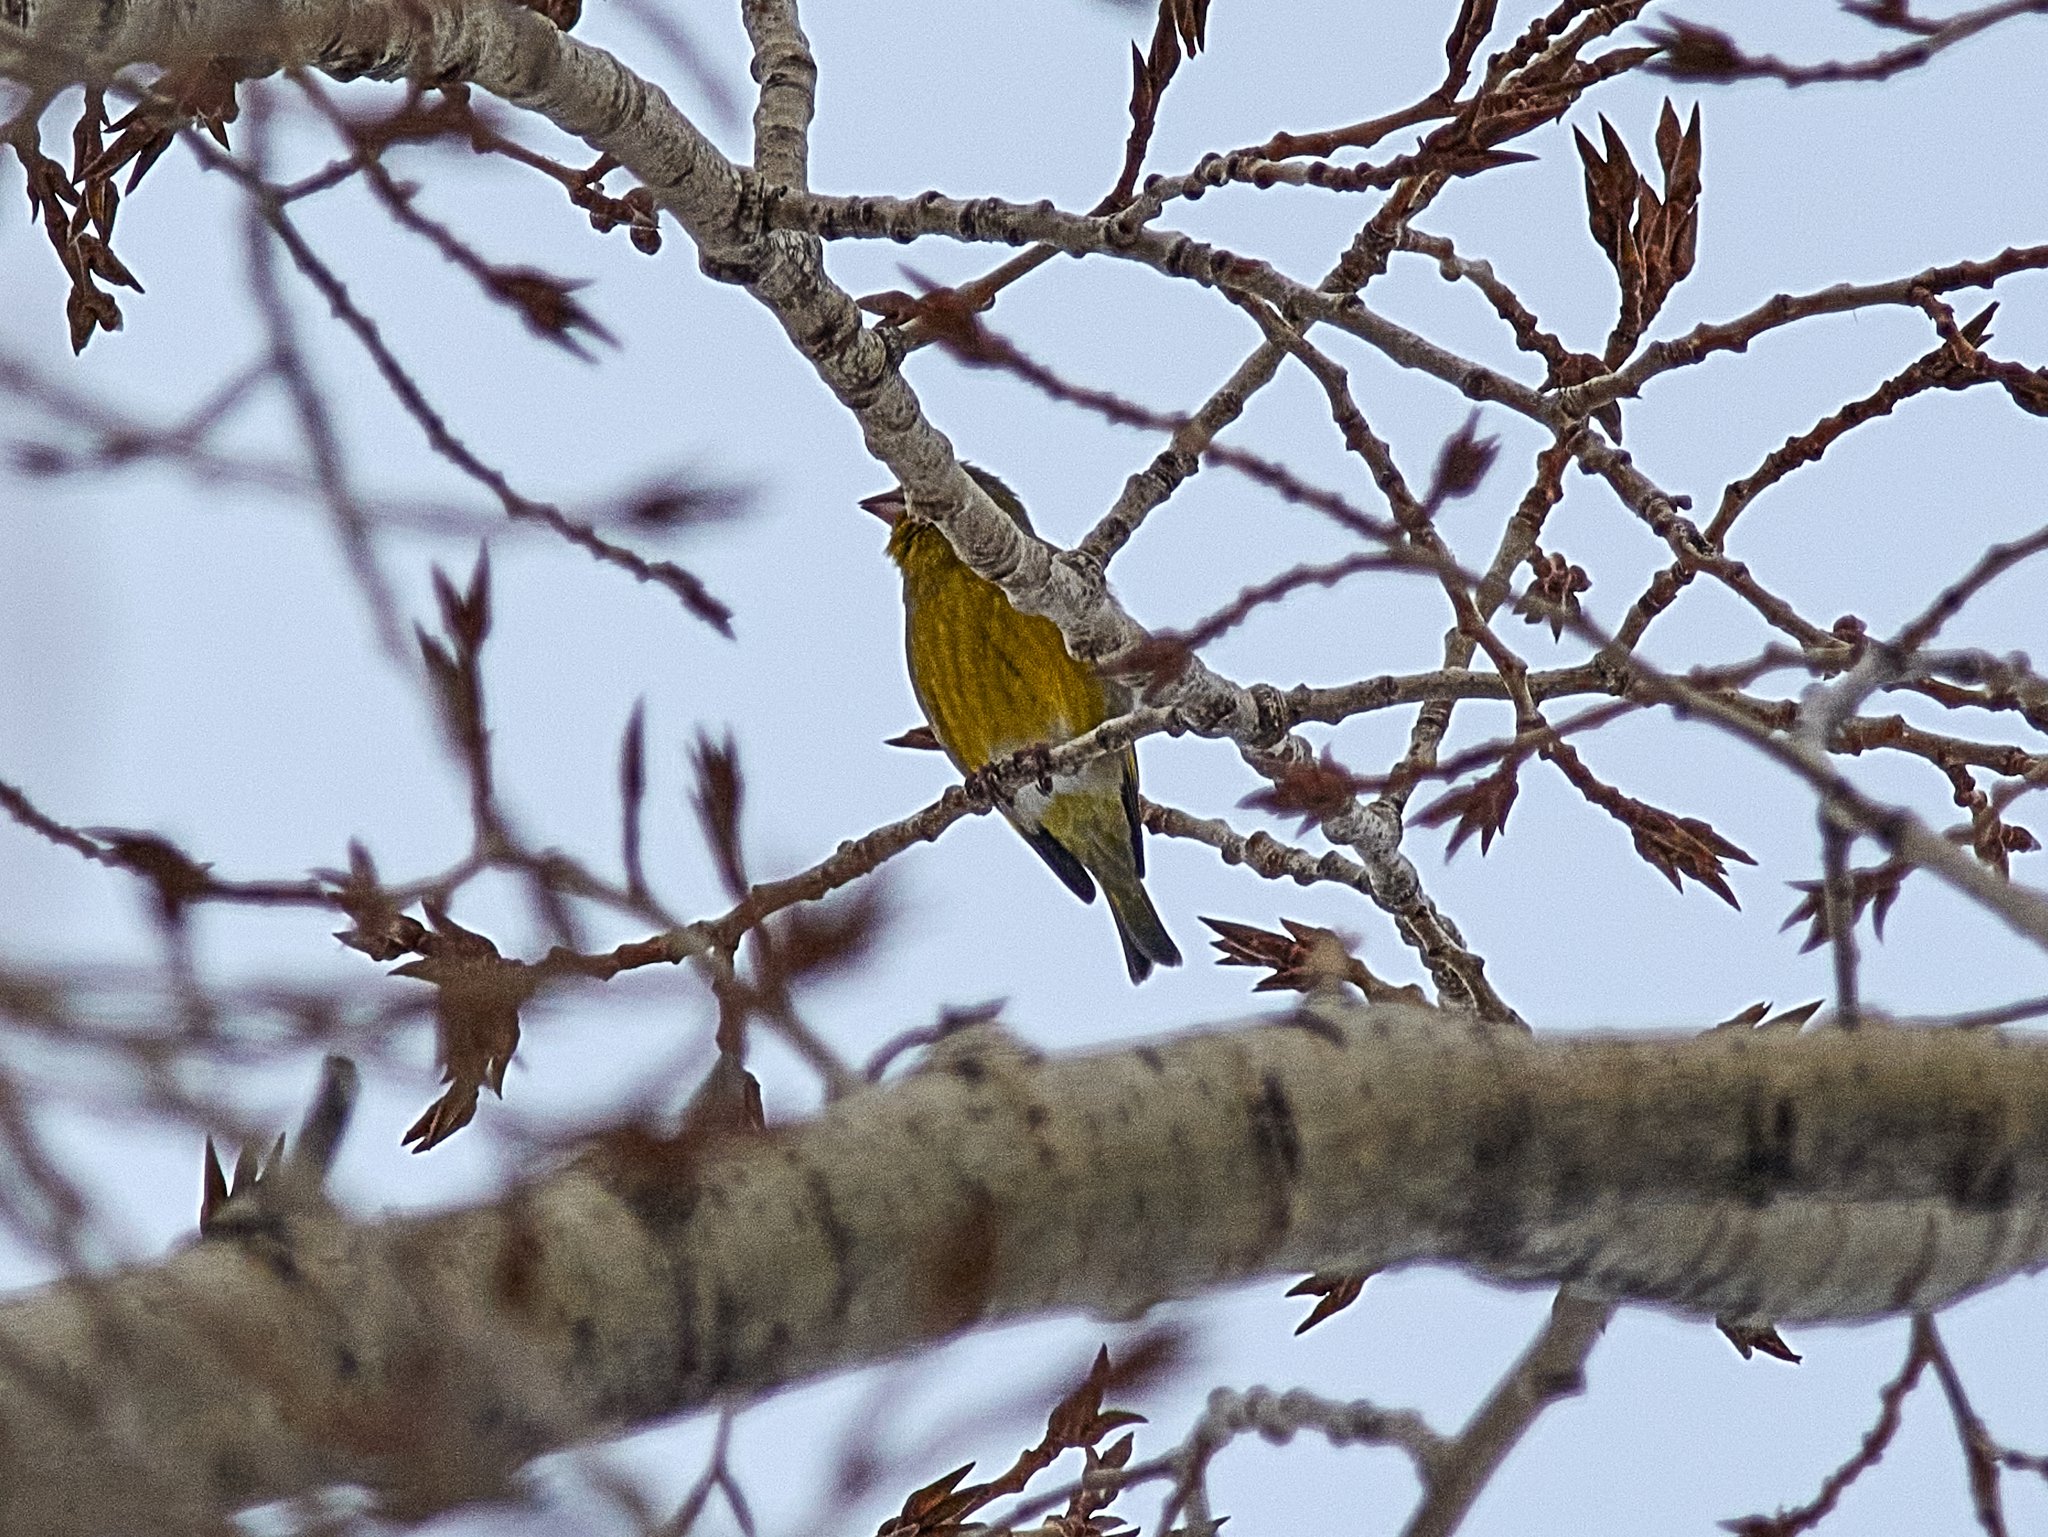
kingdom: Plantae
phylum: Tracheophyta
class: Liliopsida
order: Poales
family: Poaceae
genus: Chloris
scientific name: Chloris chloris
